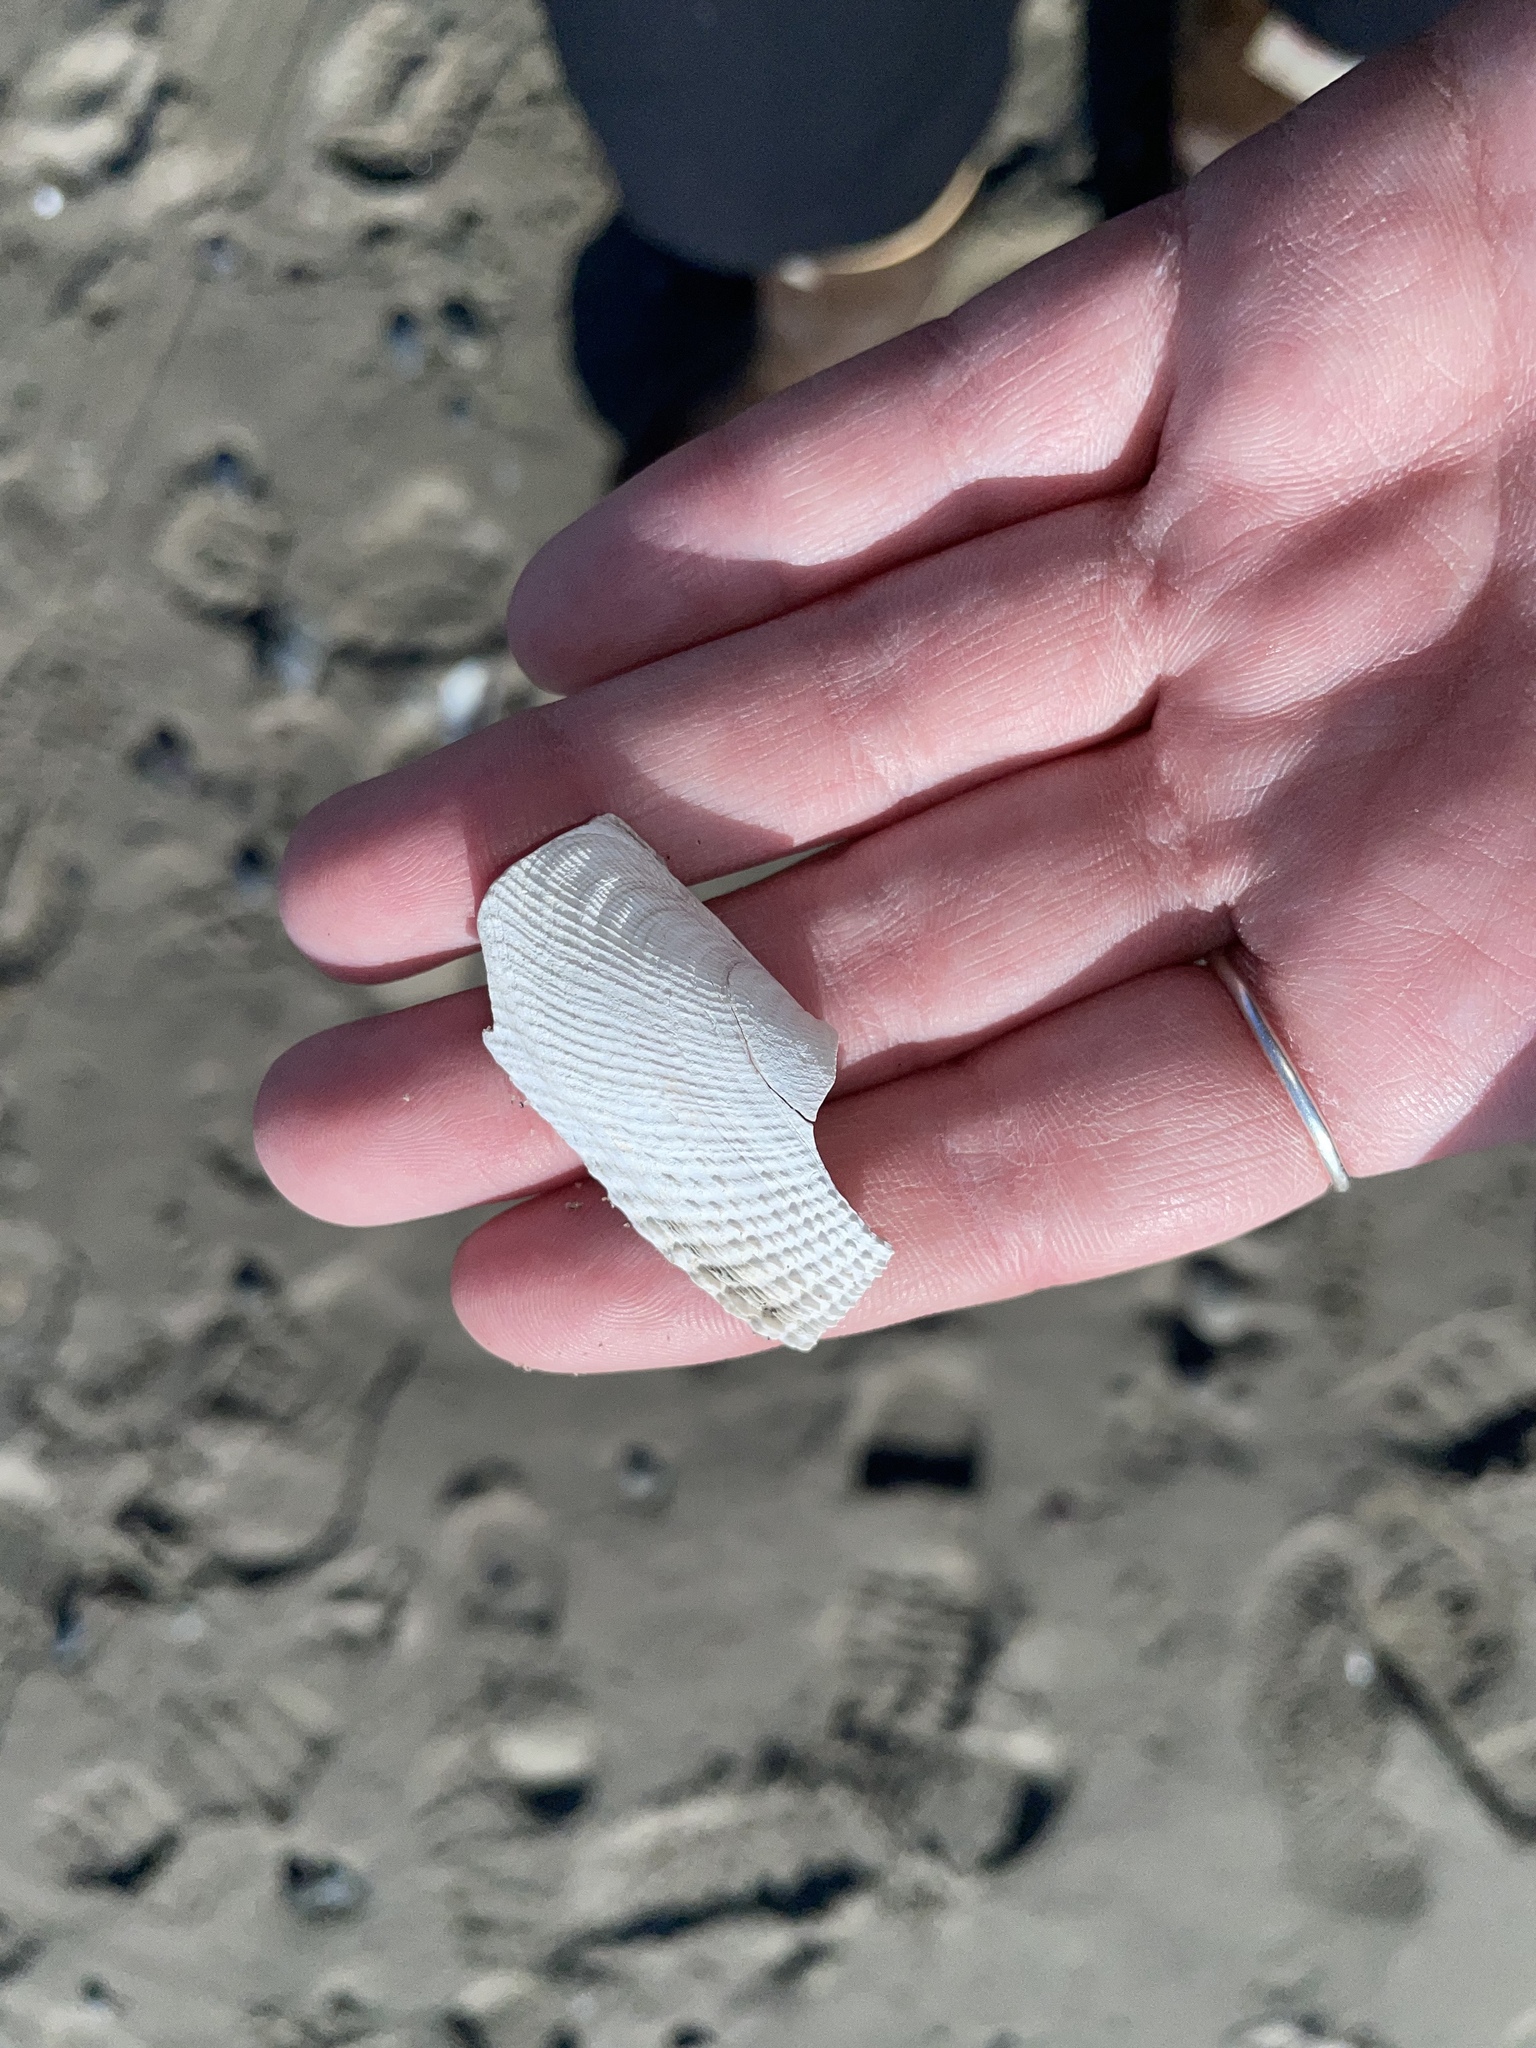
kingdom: Animalia
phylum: Mollusca
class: Bivalvia
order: Venerida
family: Veneridae
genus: Petricolaria
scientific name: Petricolaria pholadiformis
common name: American piddock
